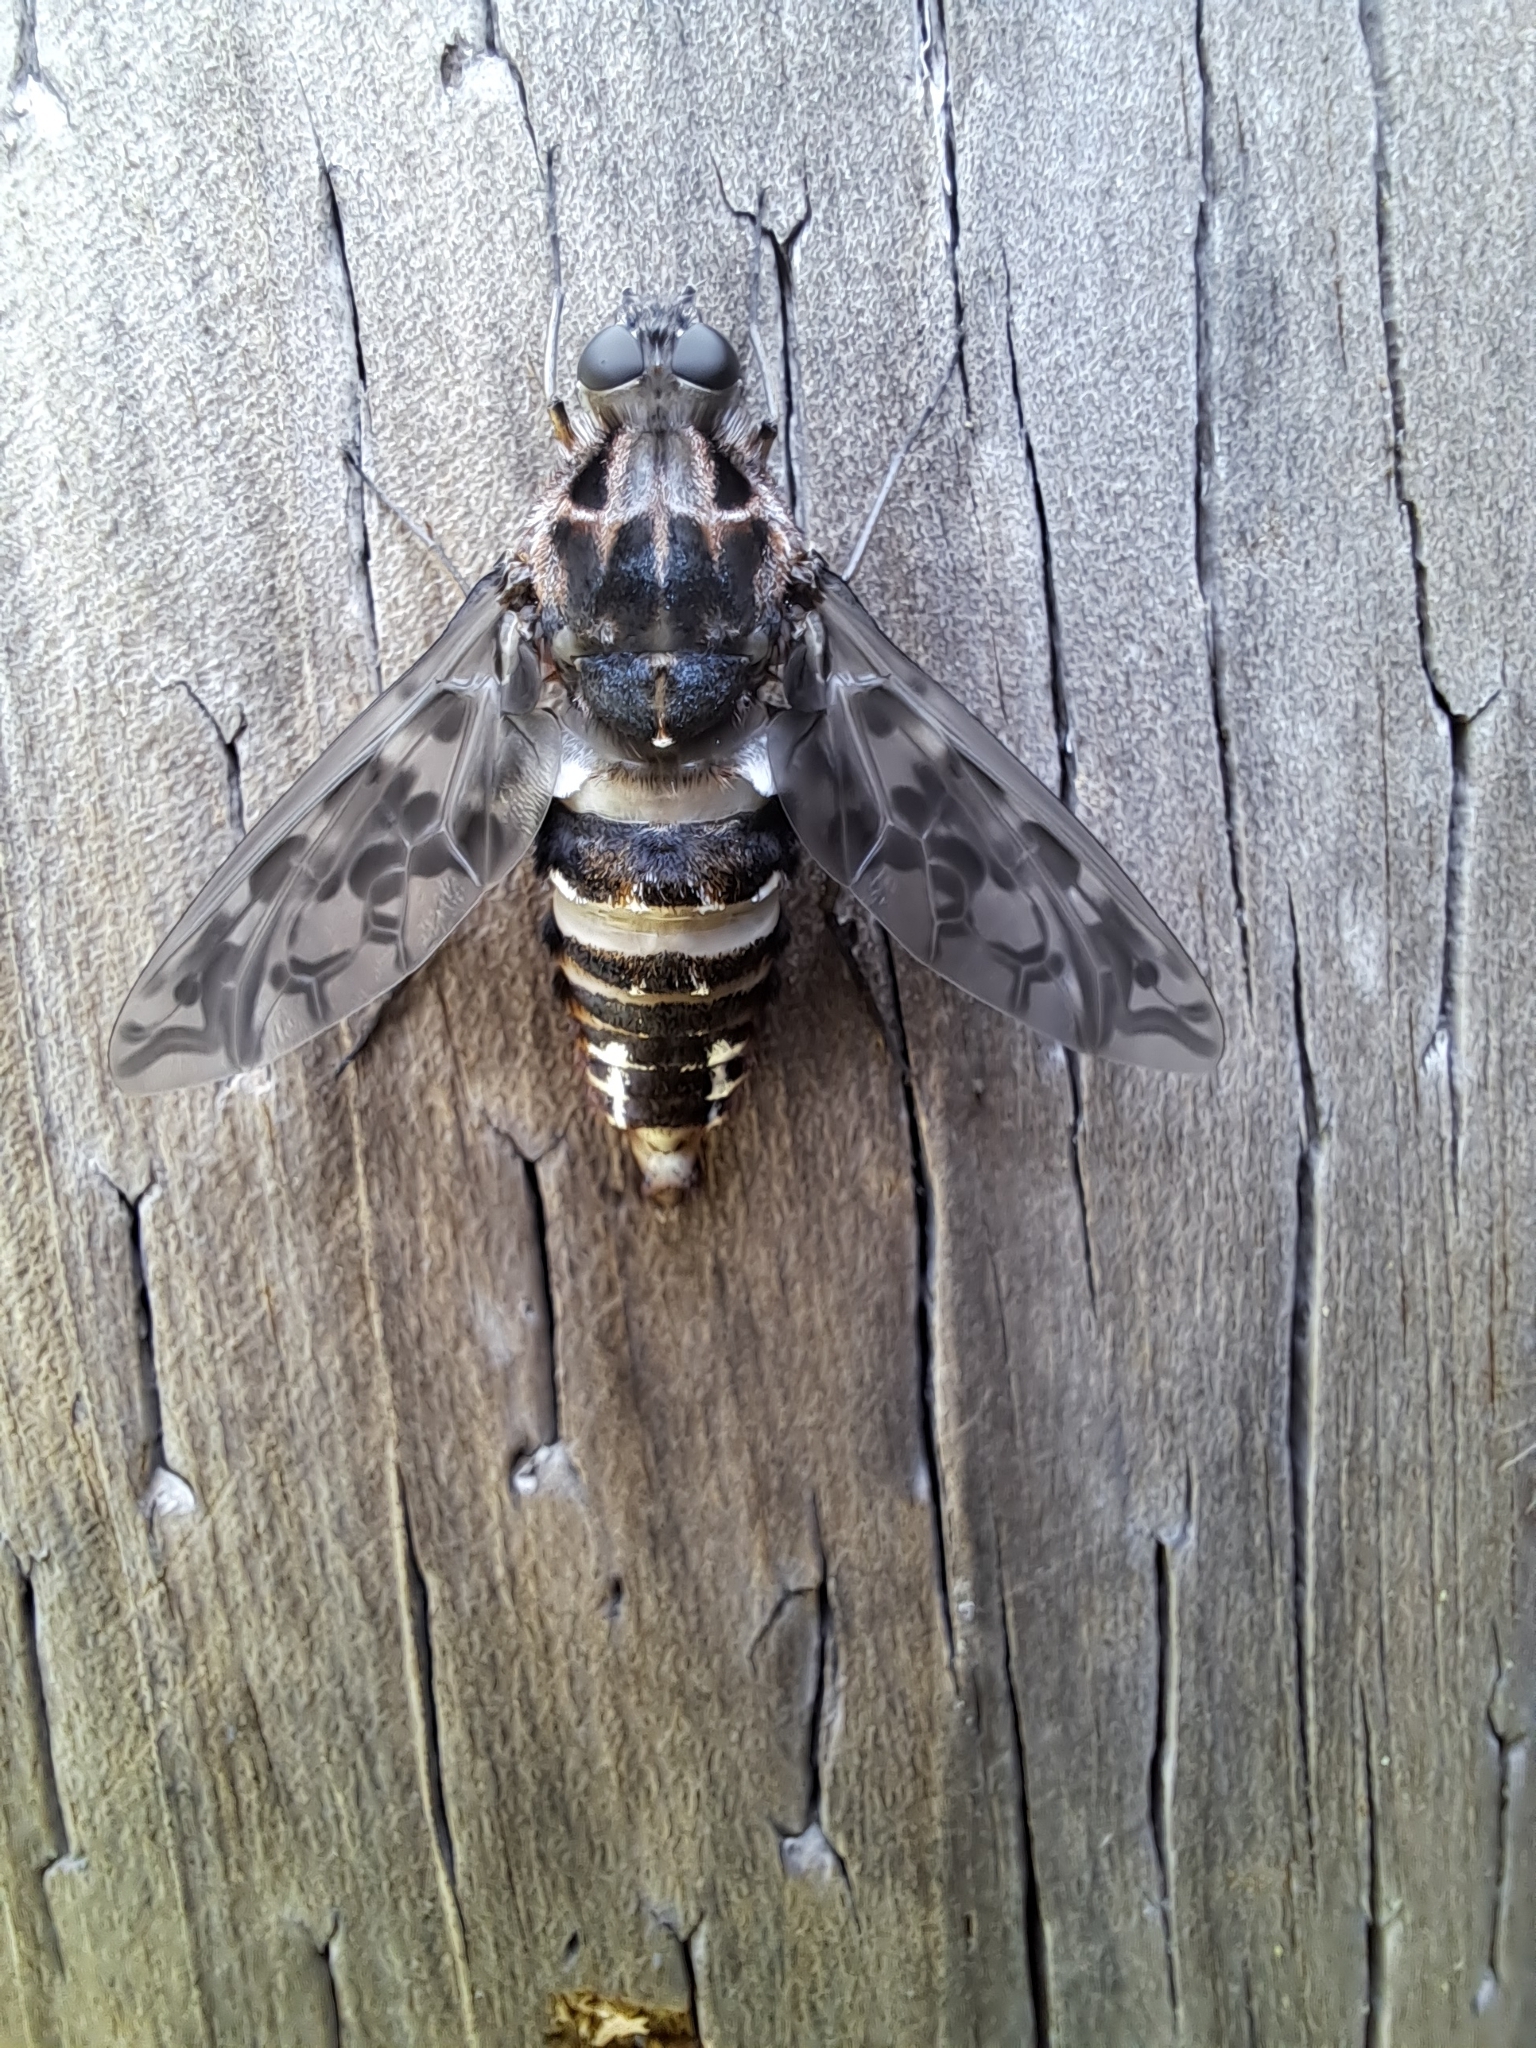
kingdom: Animalia
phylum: Arthropoda
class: Insecta
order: Diptera
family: Bombyliidae
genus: Xenox
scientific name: Xenox tigrinus
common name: Tiger bee fly
